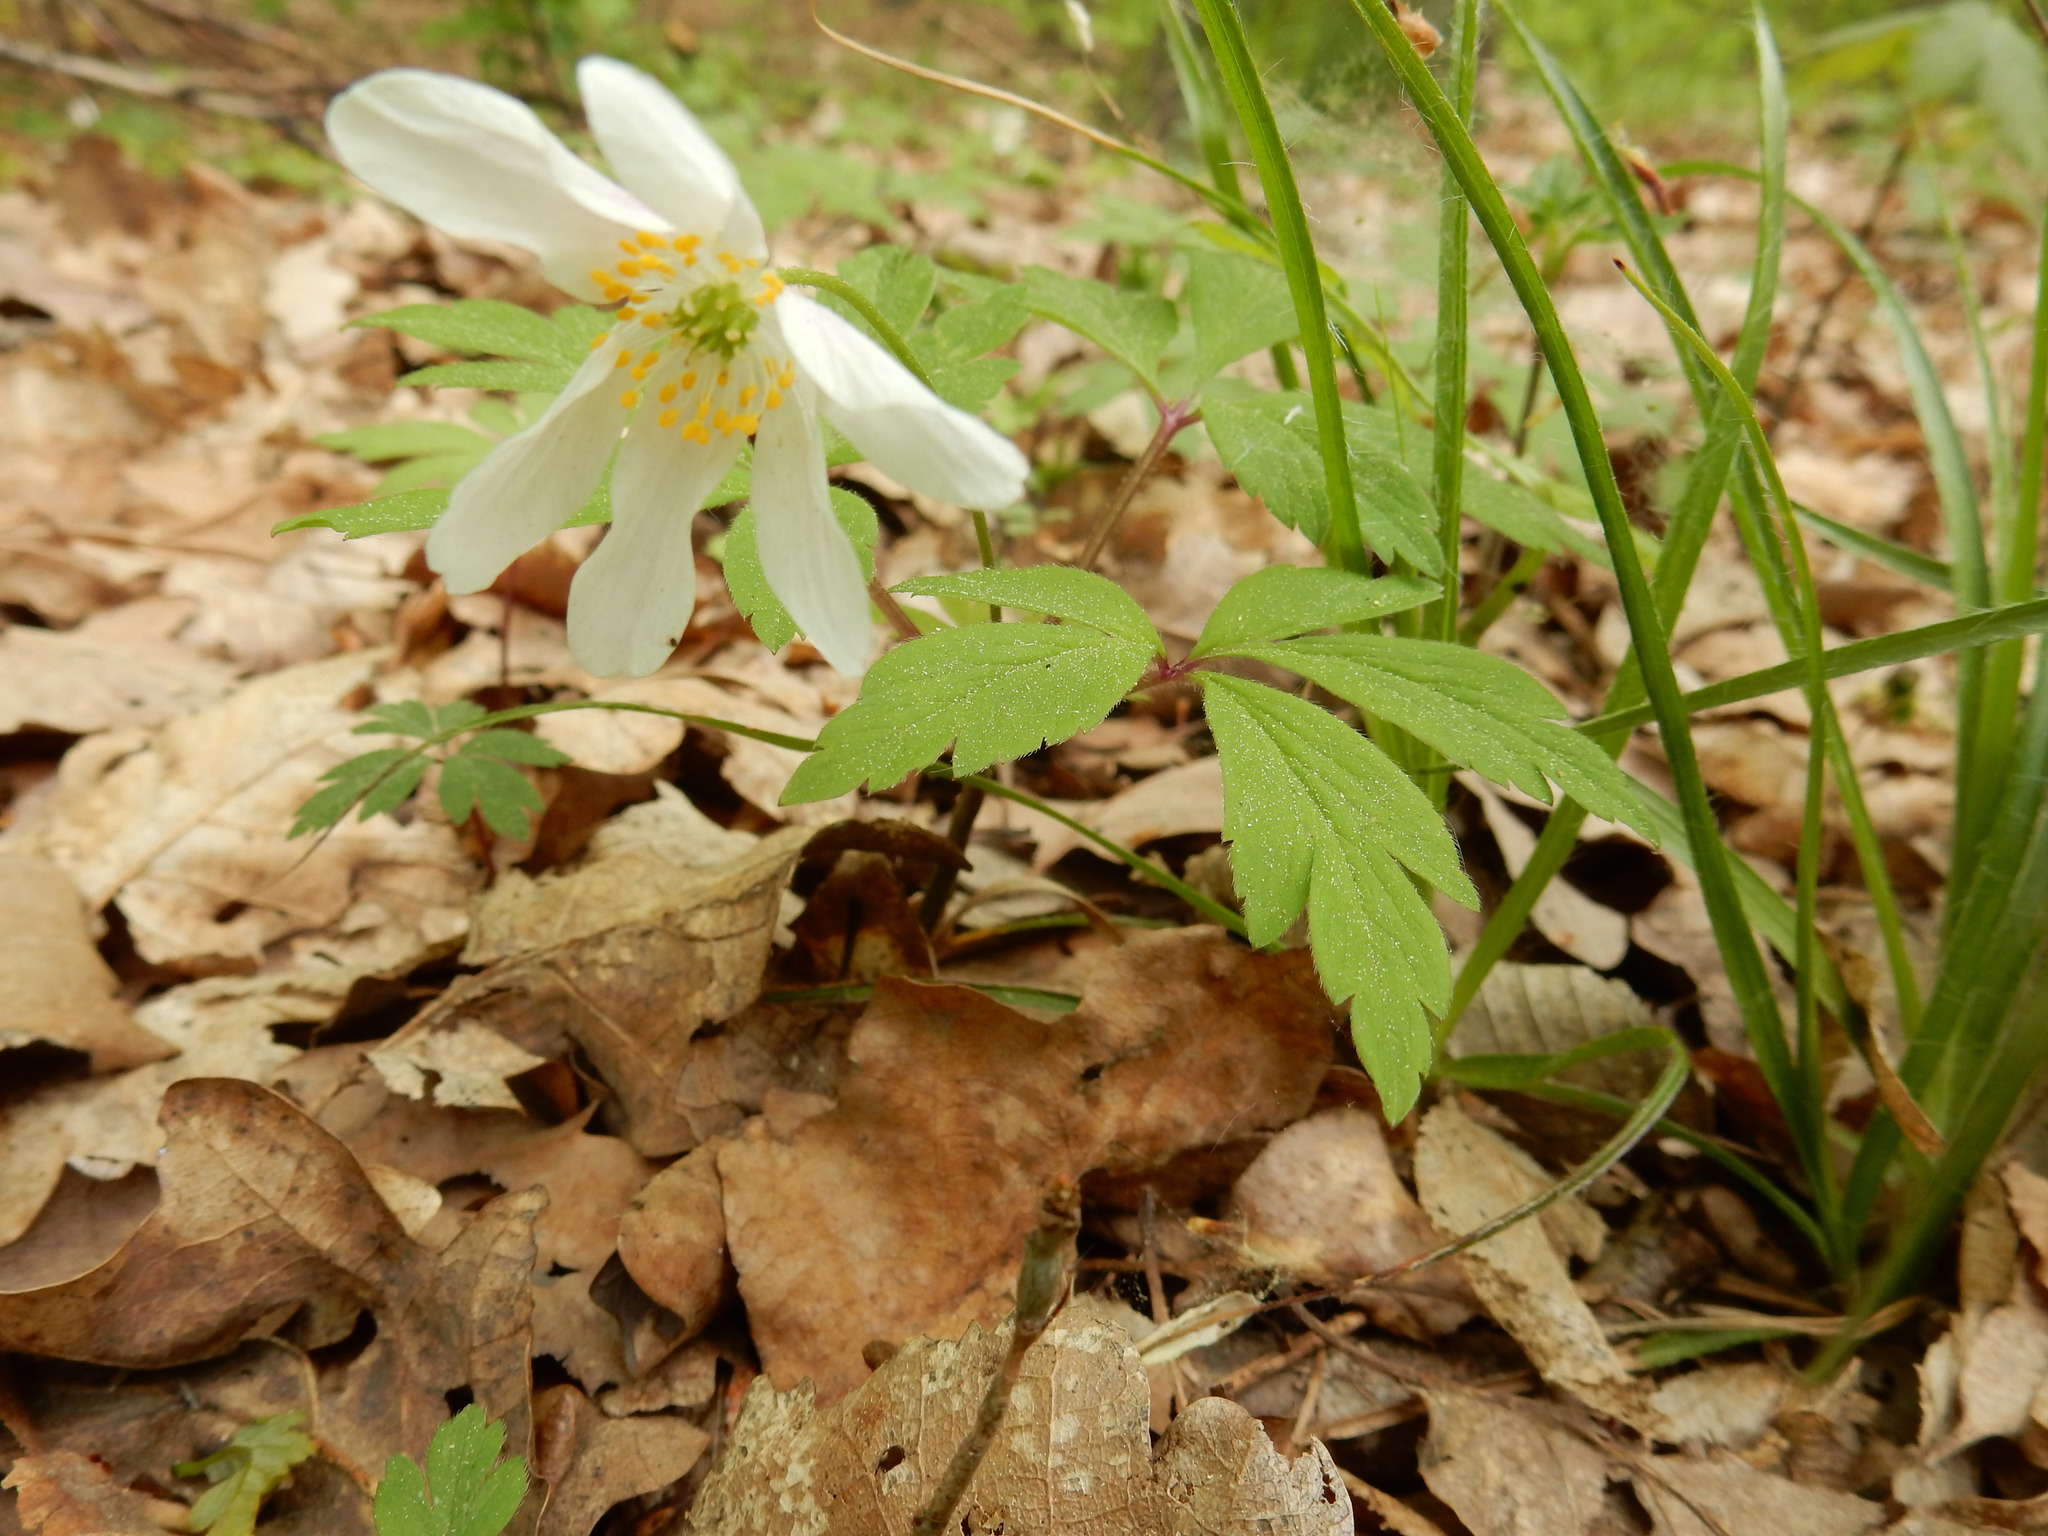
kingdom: Plantae
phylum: Tracheophyta
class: Magnoliopsida
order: Ranunculales
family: Ranunculaceae
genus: Anemone
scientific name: Anemone nemorosa
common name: Wood anemone
